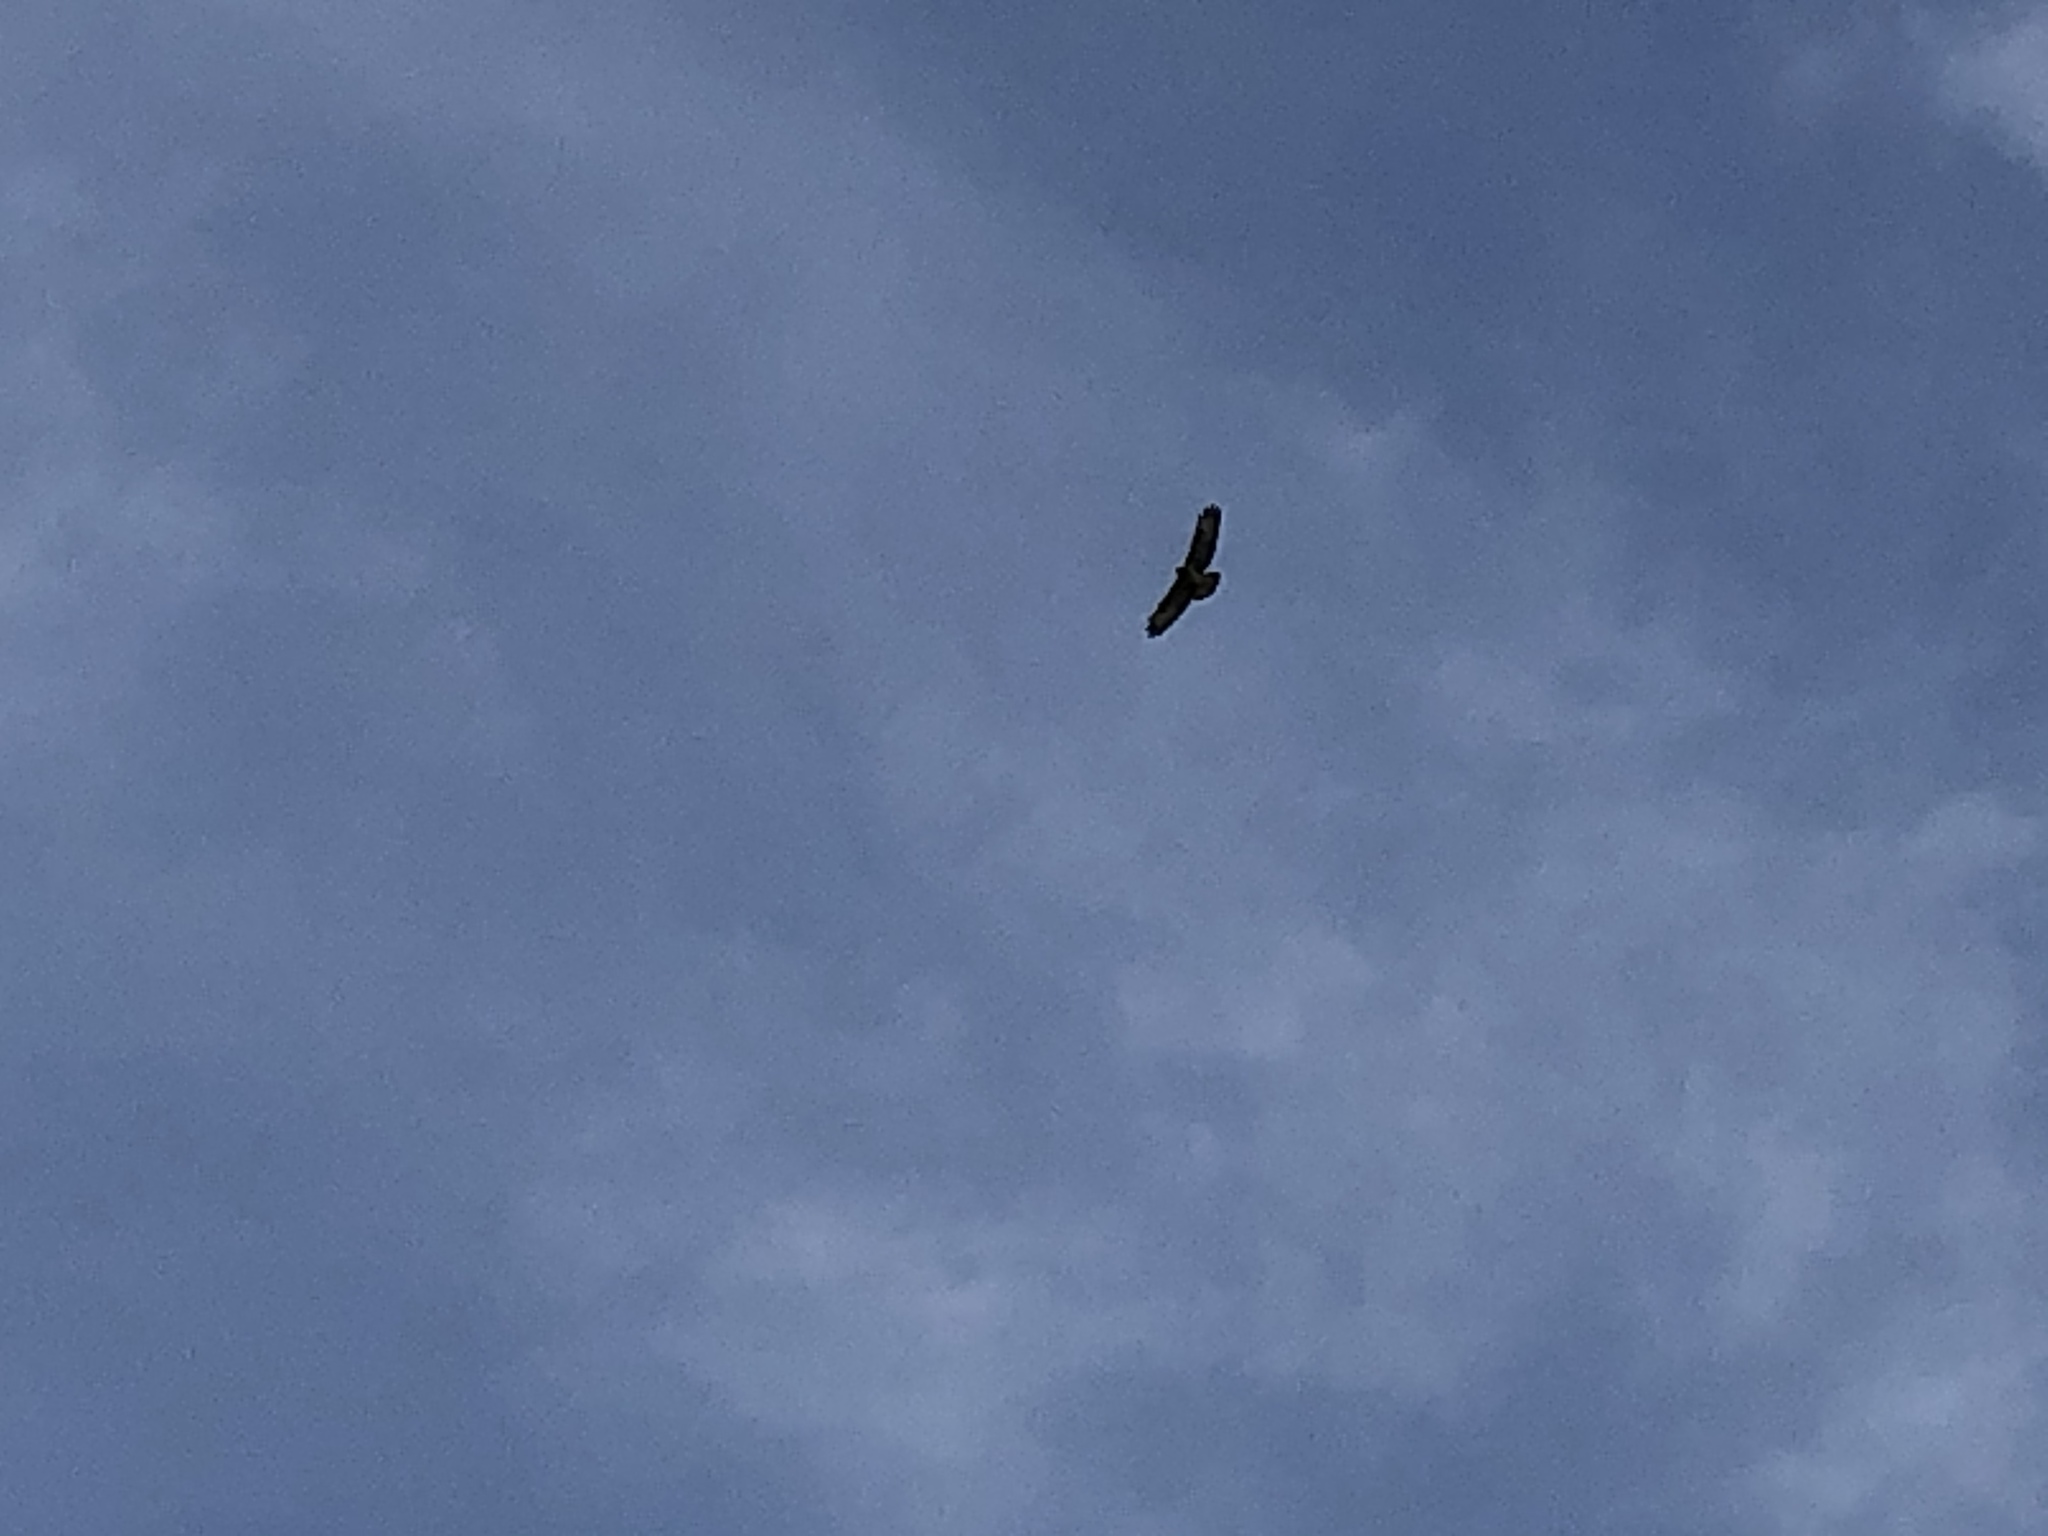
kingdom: Animalia
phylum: Chordata
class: Aves
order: Accipitriformes
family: Accipitridae
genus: Buteo
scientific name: Buteo buteo
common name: Common buzzard
